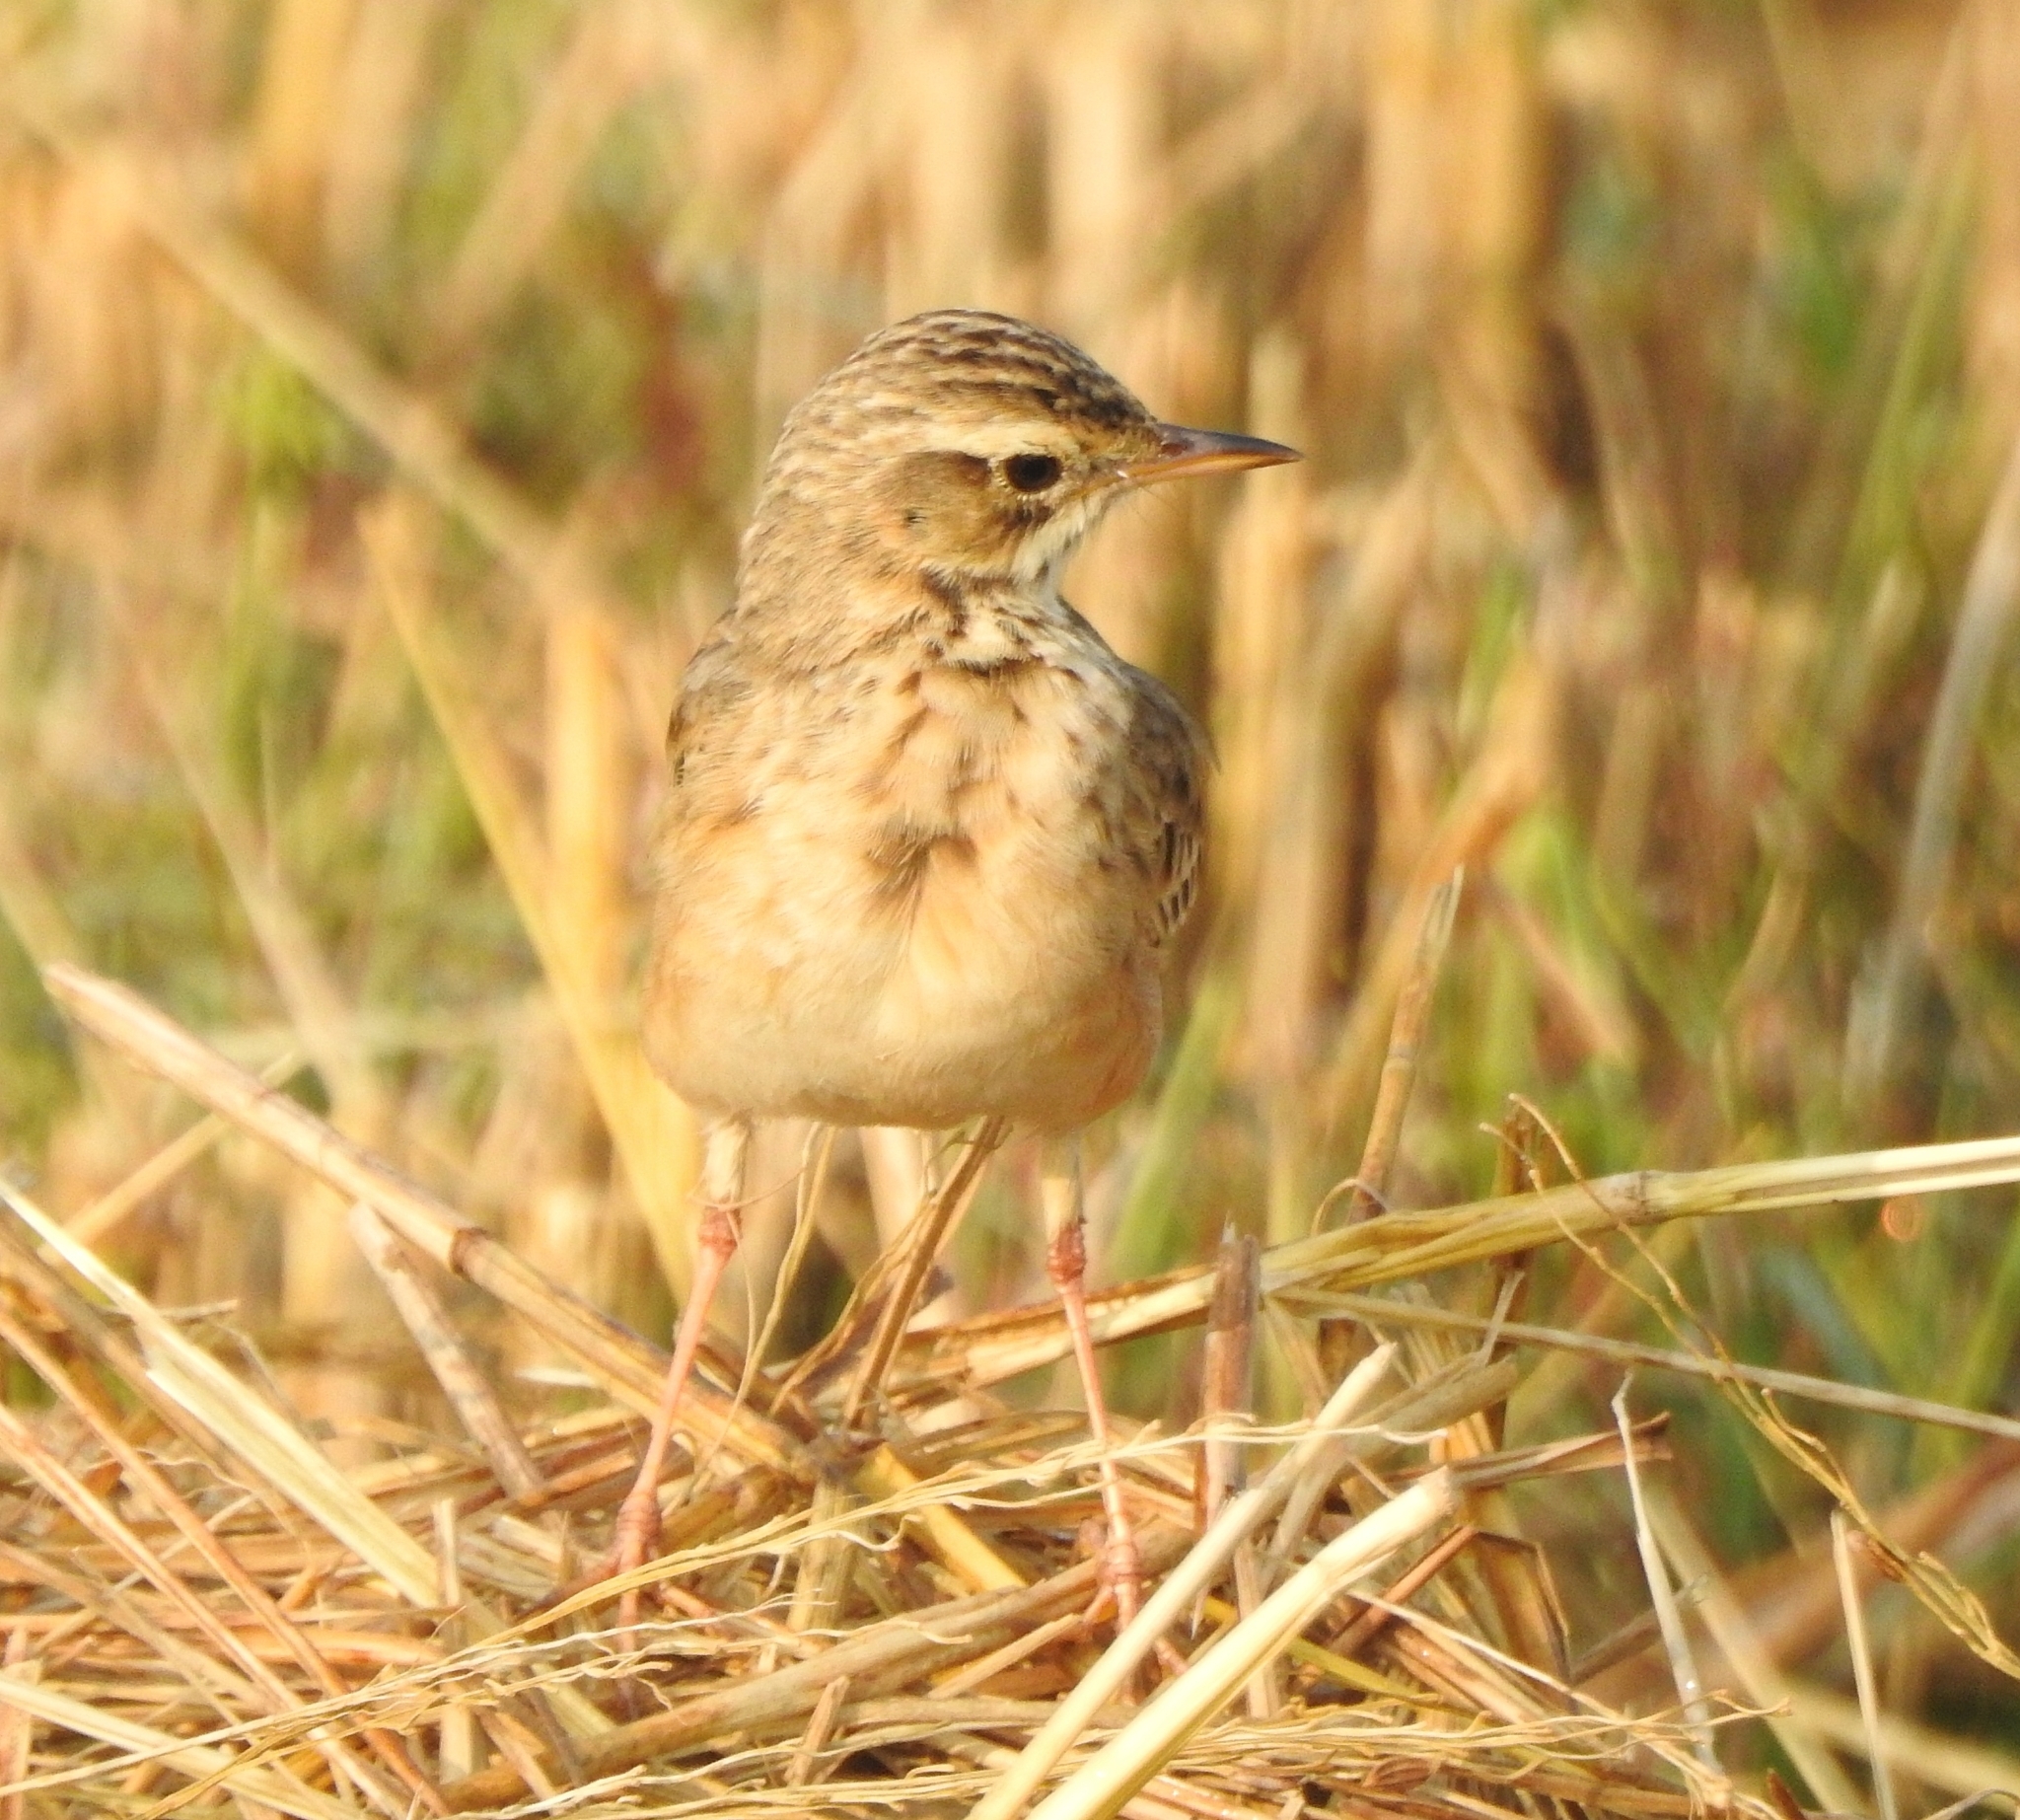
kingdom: Animalia
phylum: Chordata
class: Aves
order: Passeriformes
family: Motacillidae
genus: Anthus
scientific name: Anthus rufulus
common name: Paddyfield pipit
